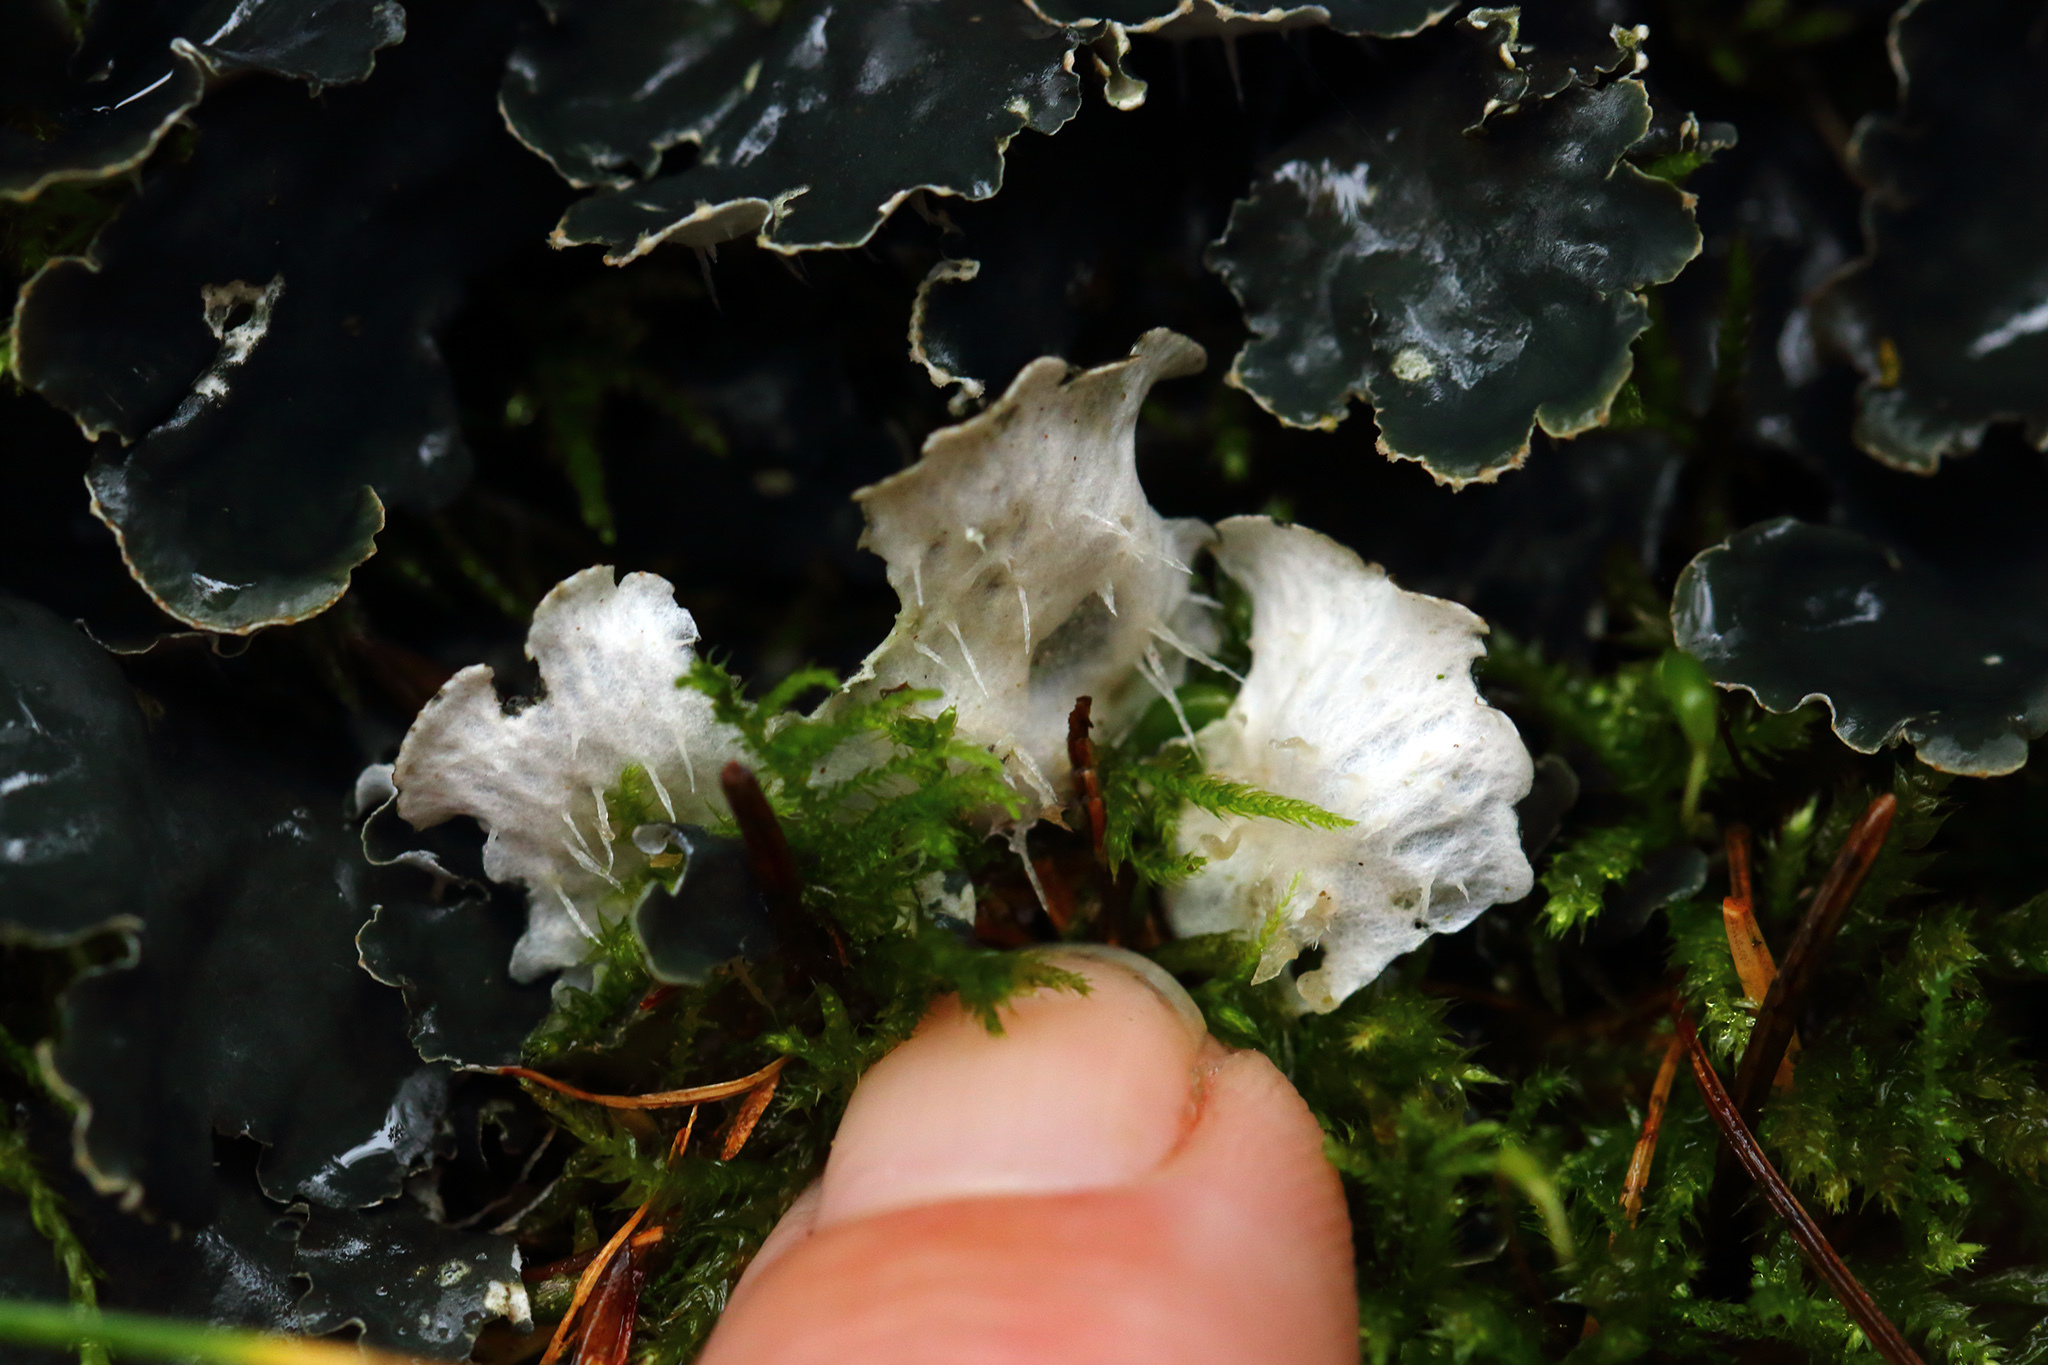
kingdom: Fungi
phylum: Ascomycota
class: Lecanoromycetes
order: Peltigerales
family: Peltigeraceae
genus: Peltigera
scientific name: Peltigera hymenina
